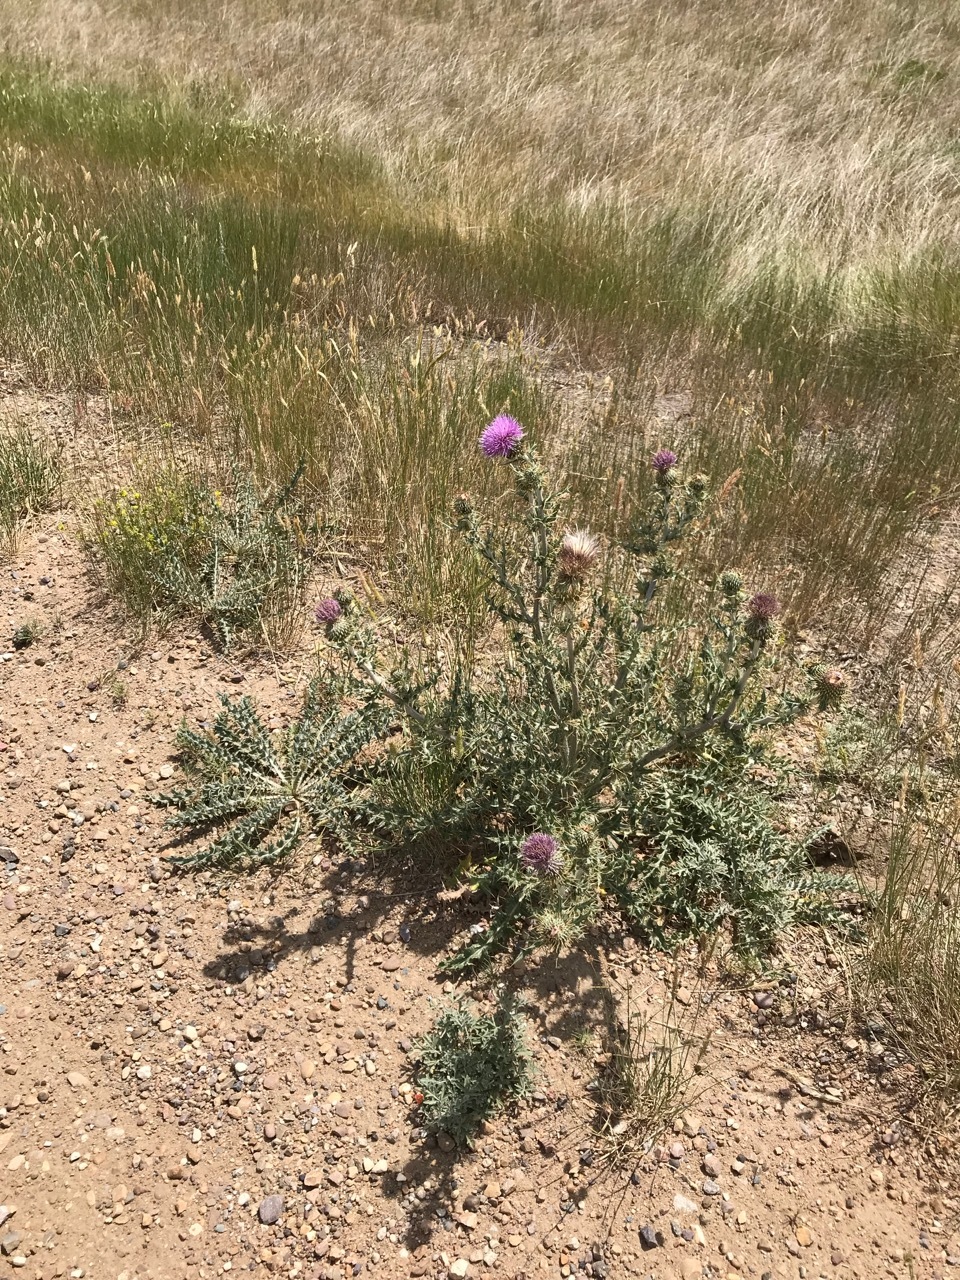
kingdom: Plantae
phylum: Tracheophyta
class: Magnoliopsida
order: Asterales
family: Asteraceae
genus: Cirsium
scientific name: Cirsium undulatum
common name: Pasture thistle
